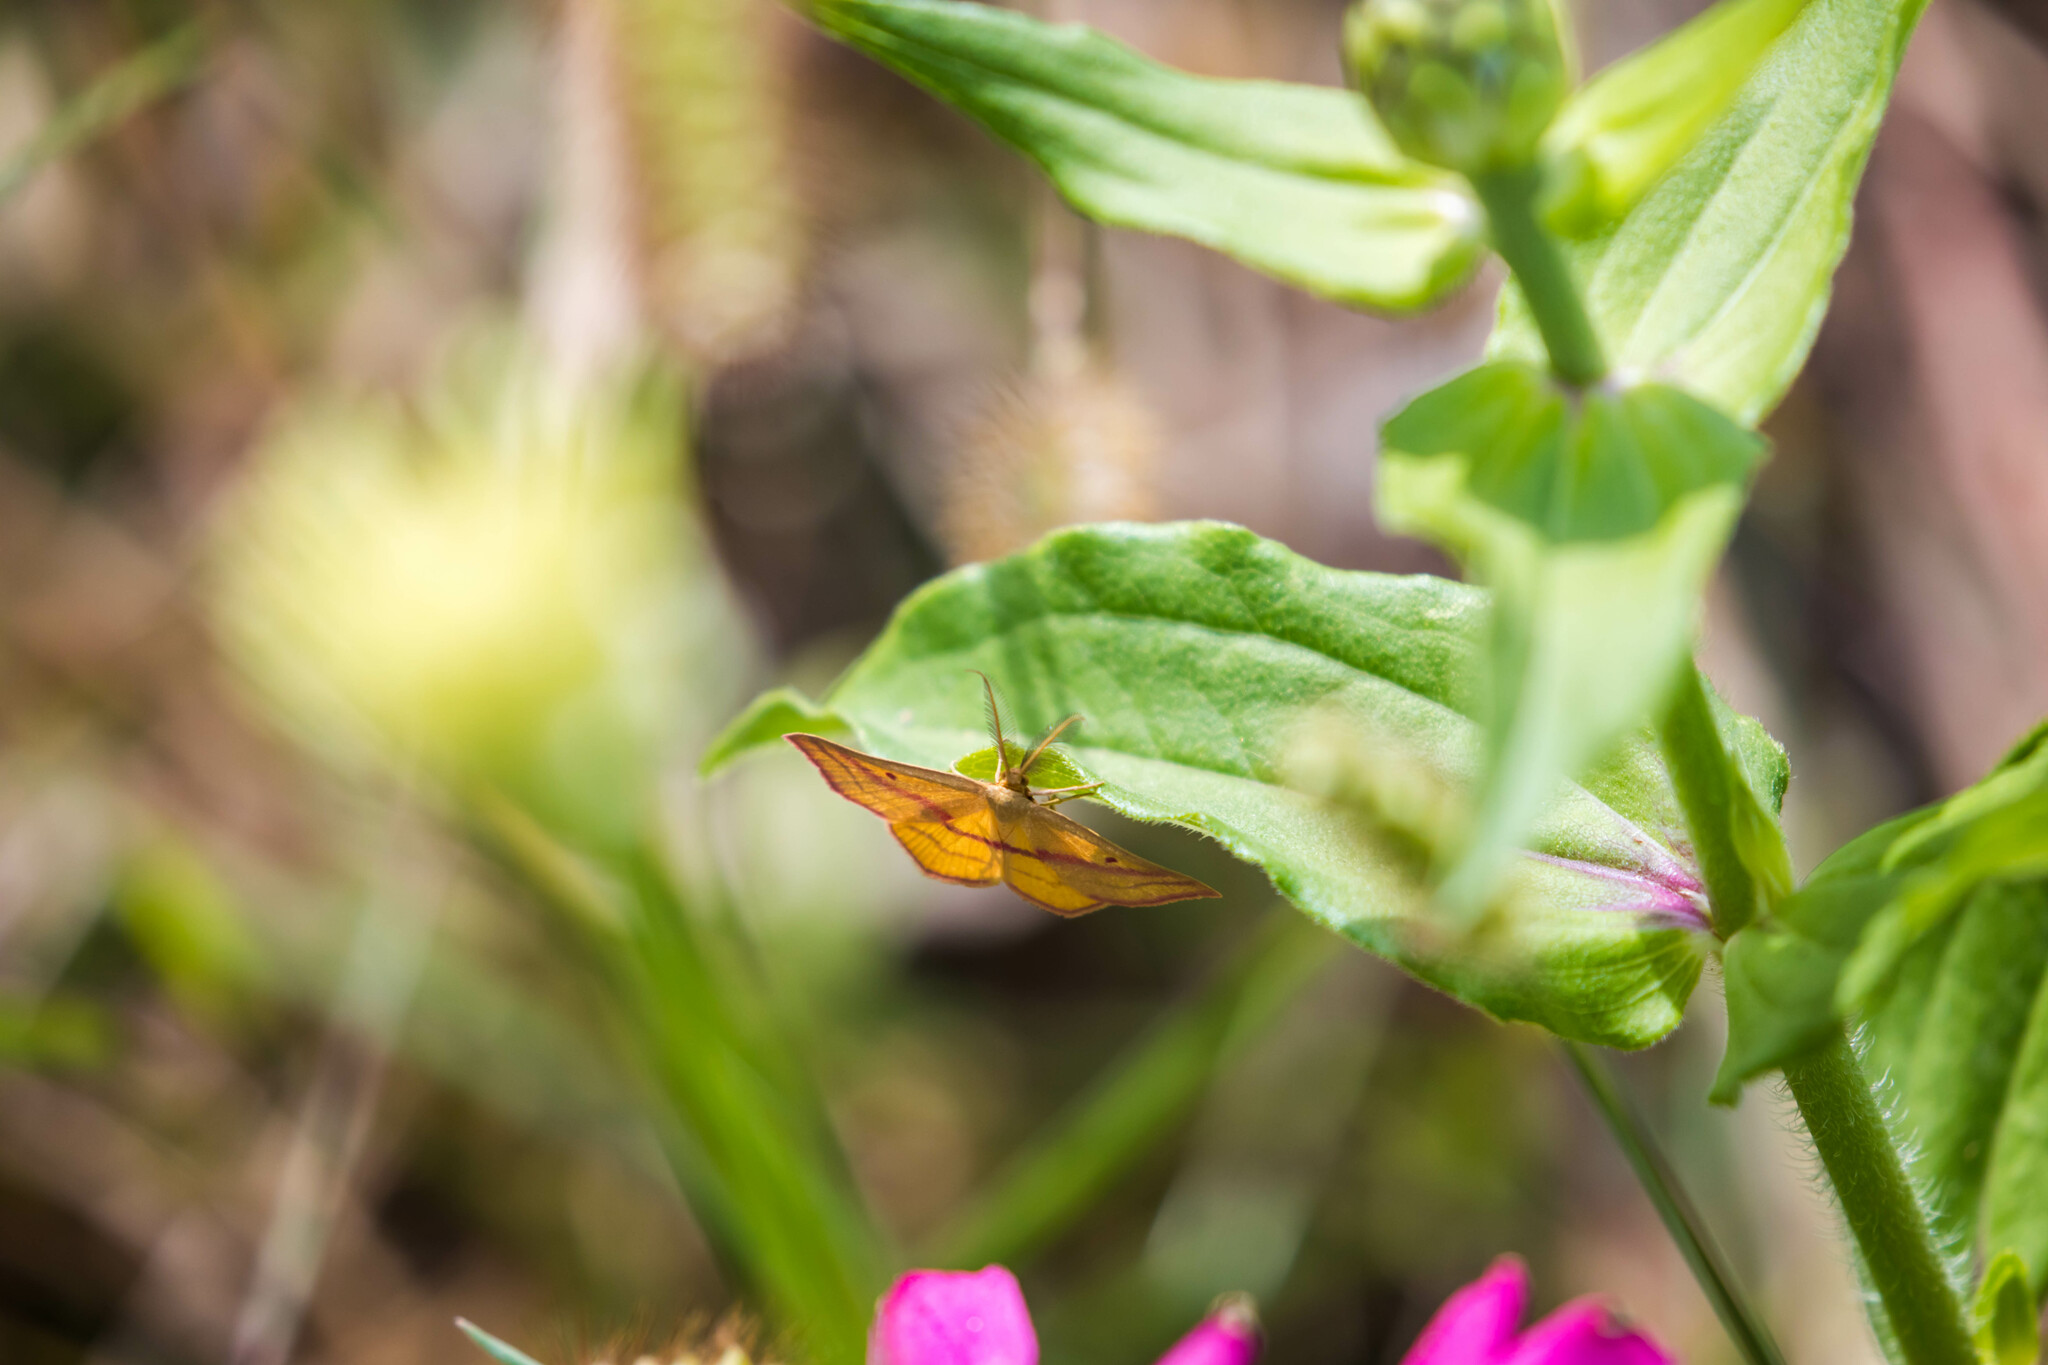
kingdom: Animalia
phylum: Arthropoda
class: Insecta
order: Lepidoptera
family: Geometridae
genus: Haematopis
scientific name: Haematopis grataria
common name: Chickweed geometer
